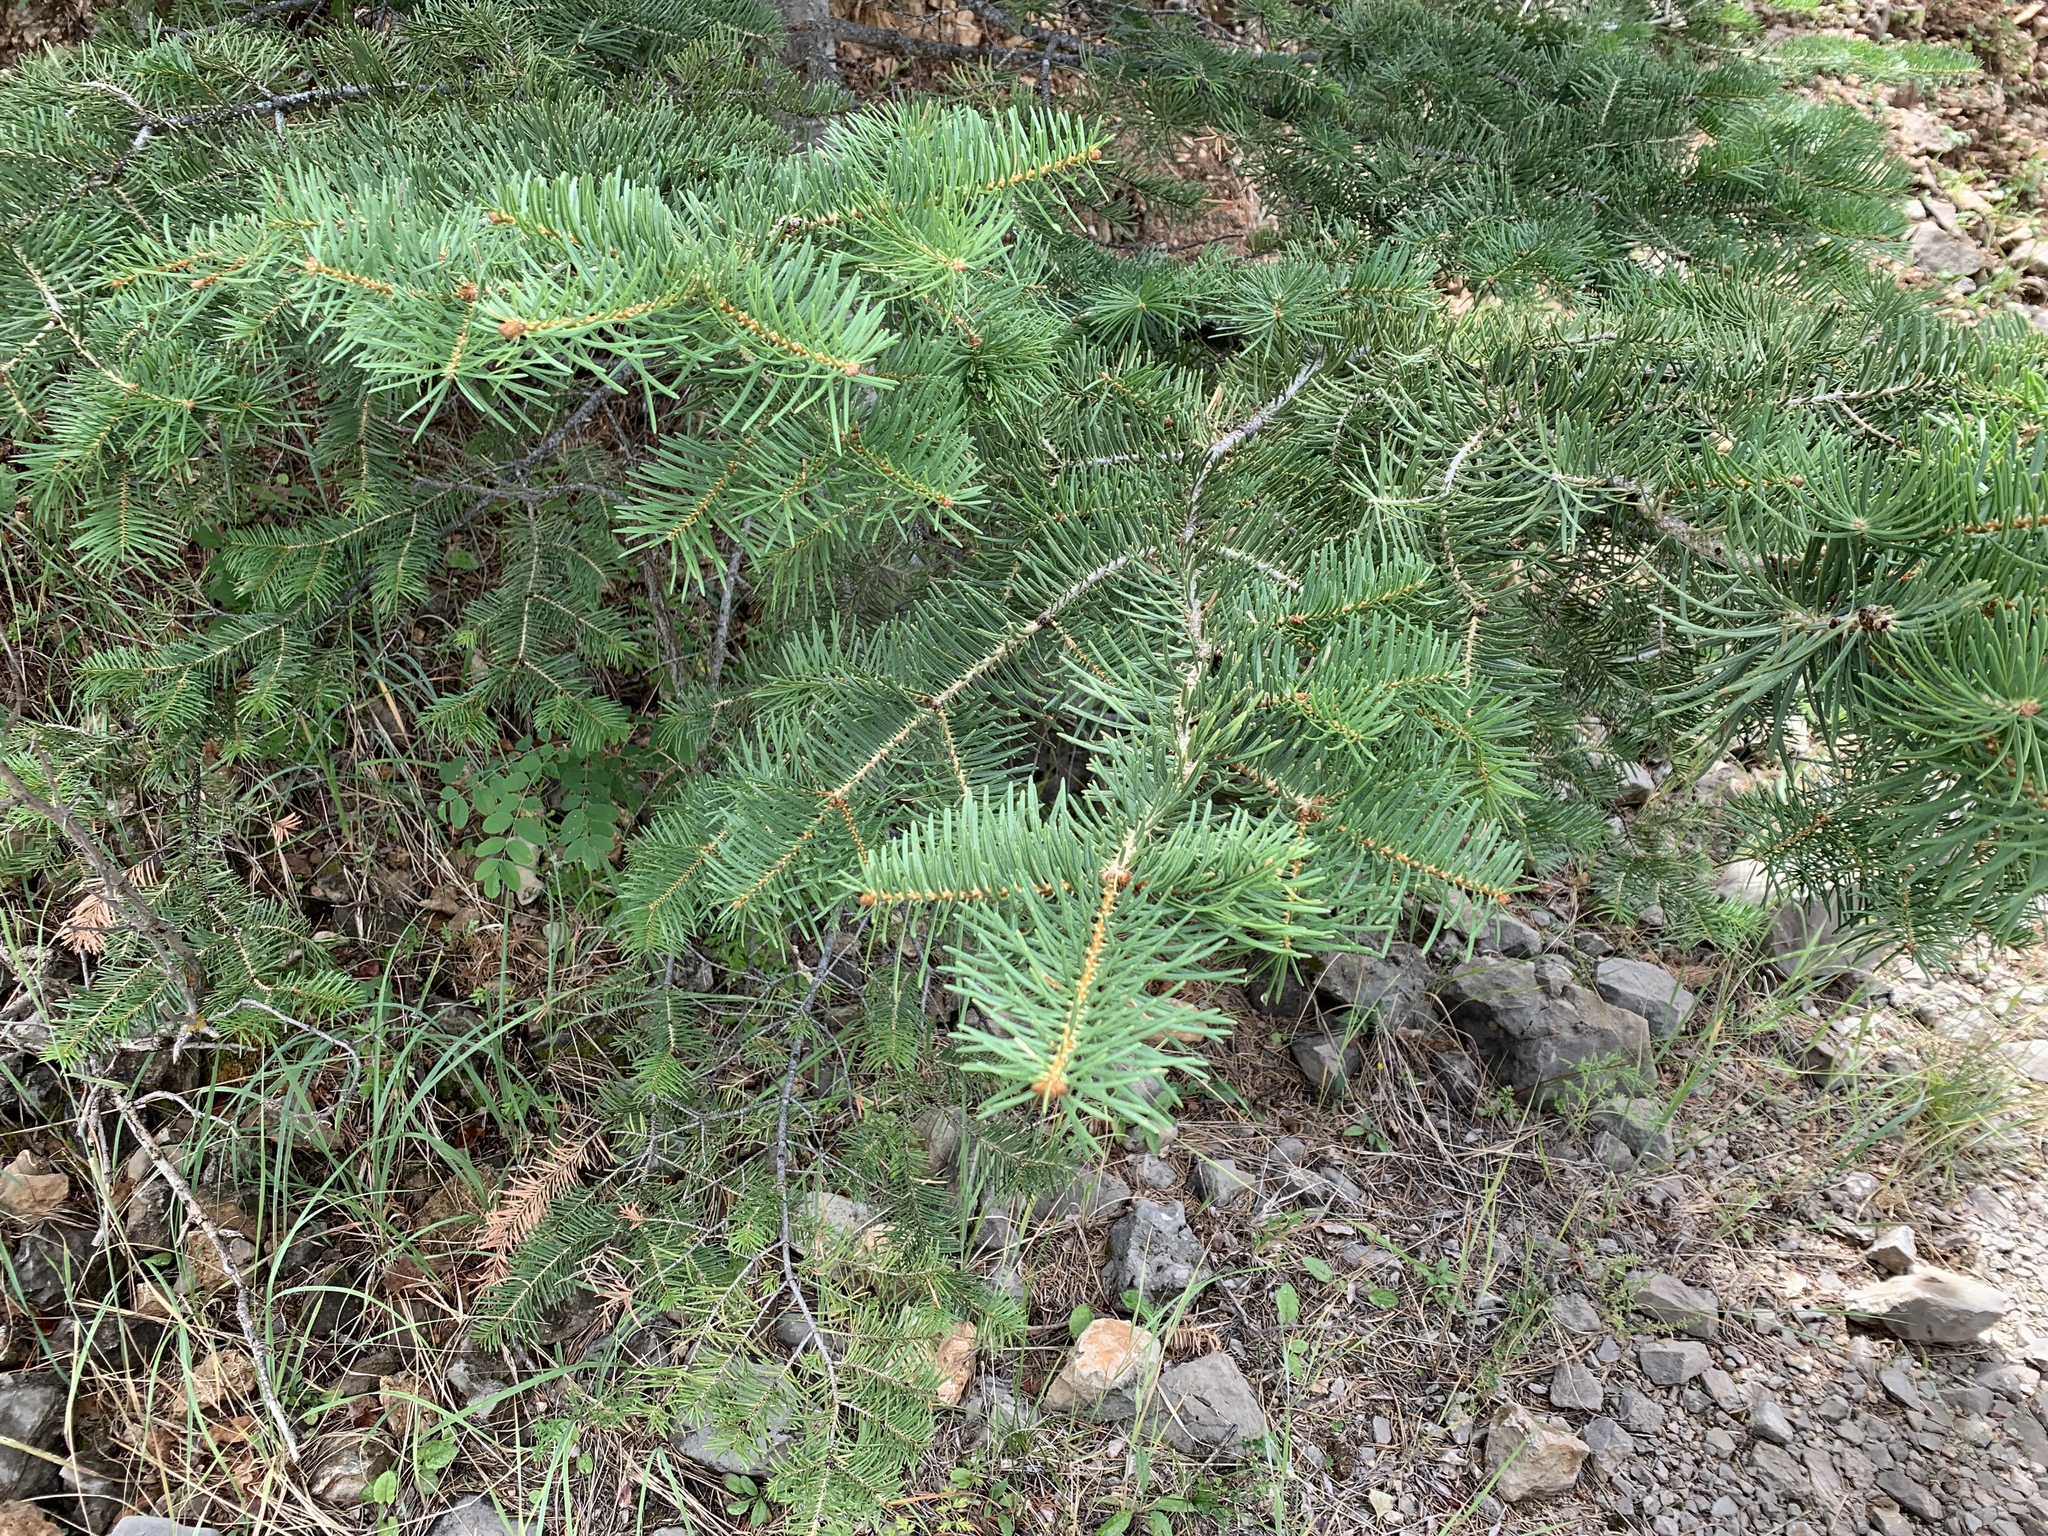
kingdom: Plantae
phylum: Tracheophyta
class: Pinopsida
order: Pinales
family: Pinaceae
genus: Abies
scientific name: Abies concolor
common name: Colorado fir
